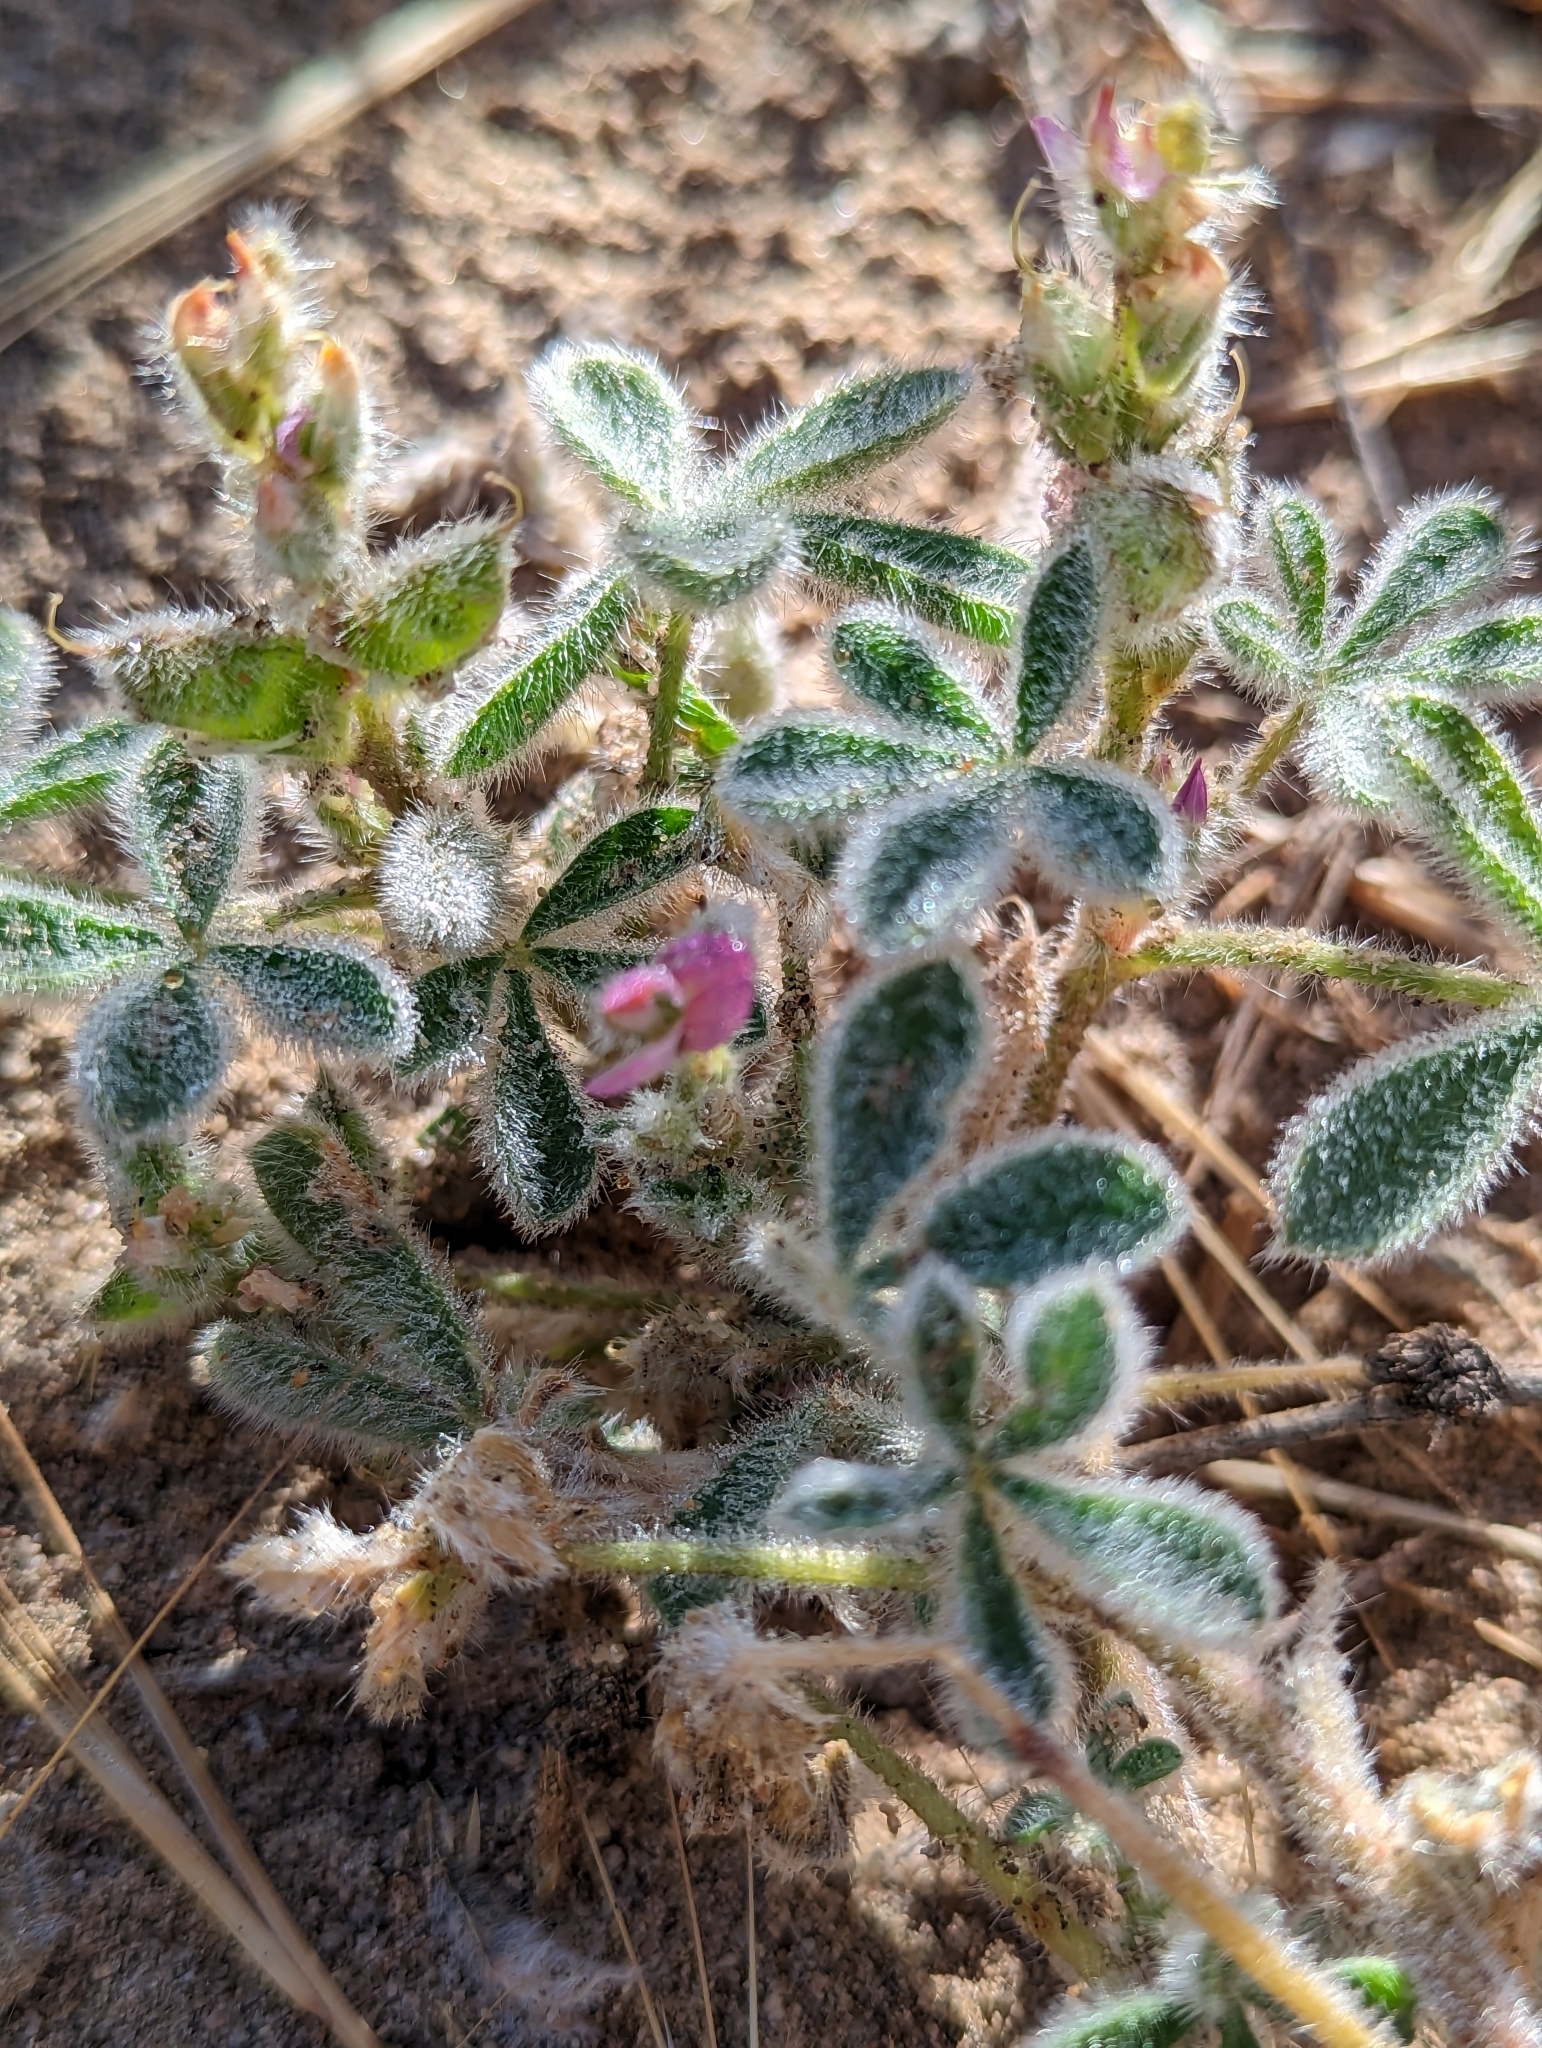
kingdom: Plantae
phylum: Tracheophyta
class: Magnoliopsida
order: Fabales
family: Fabaceae
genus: Lupinus
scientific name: Lupinus concinnus
